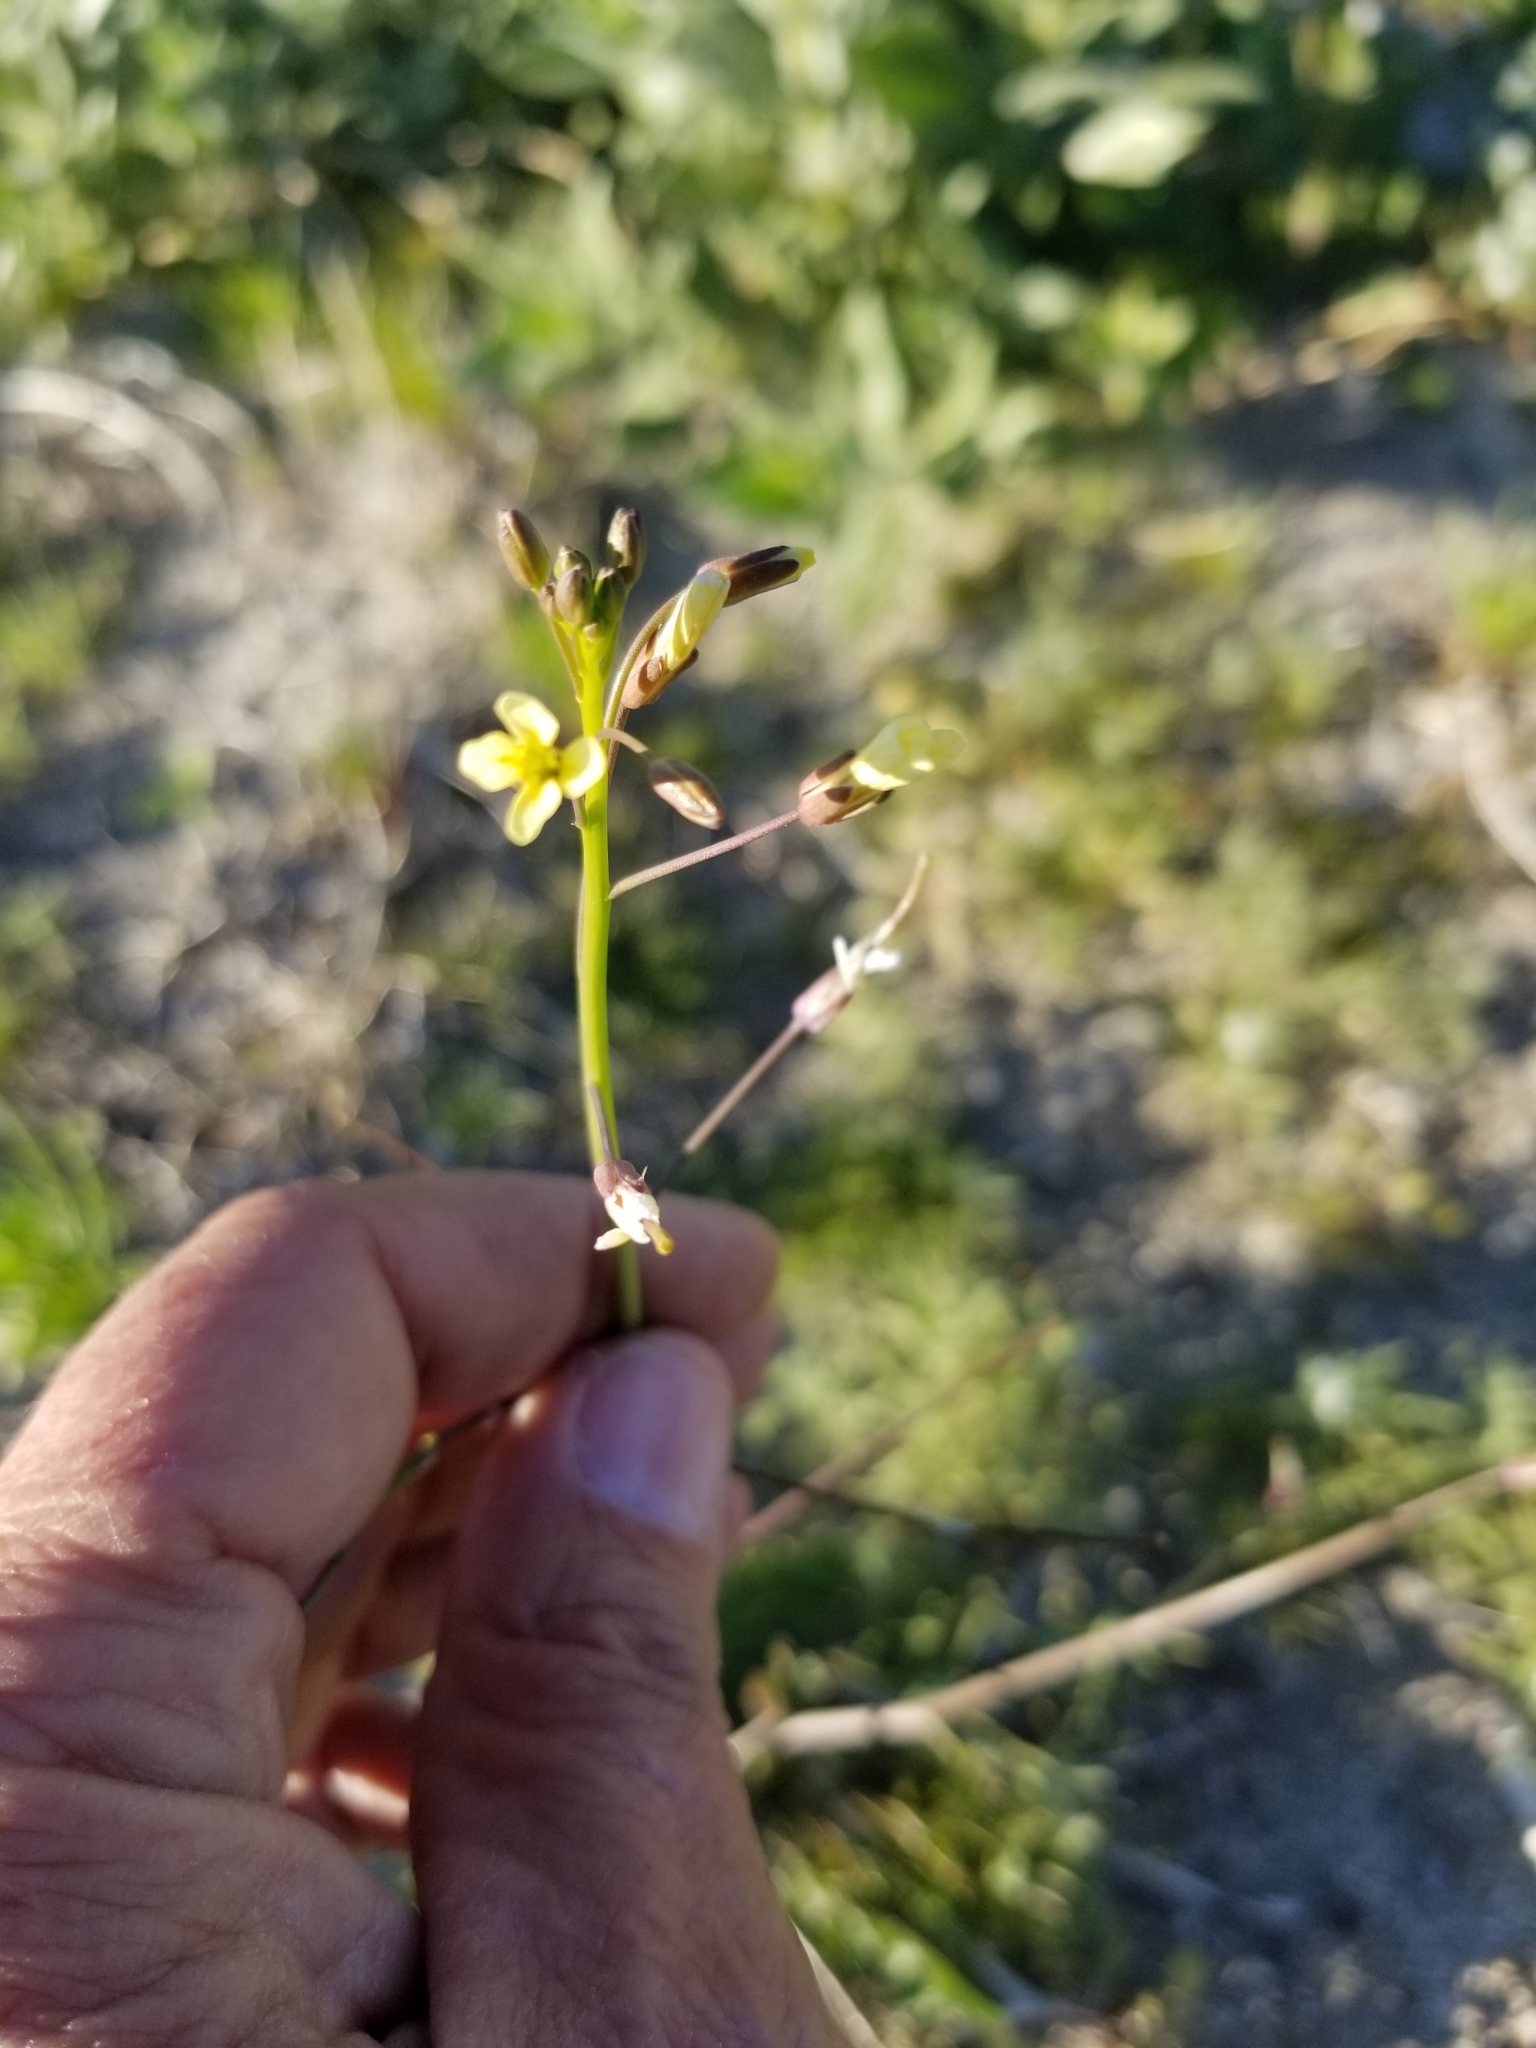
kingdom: Plantae
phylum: Tracheophyta
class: Magnoliopsida
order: Brassicales
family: Brassicaceae
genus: Brassica
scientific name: Brassica tournefortii
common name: Pale cabbage
